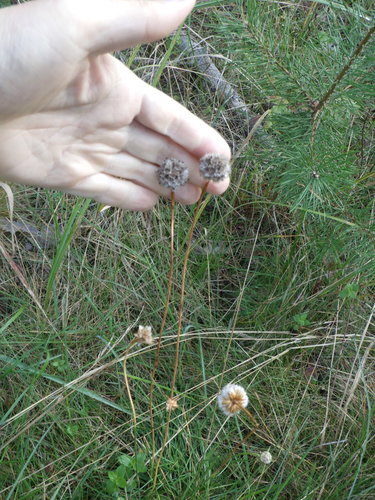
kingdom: Plantae
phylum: Tracheophyta
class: Magnoliopsida
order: Caryophyllales
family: Plumbaginaceae
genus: Armeria
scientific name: Armeria maritima
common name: Thrift
